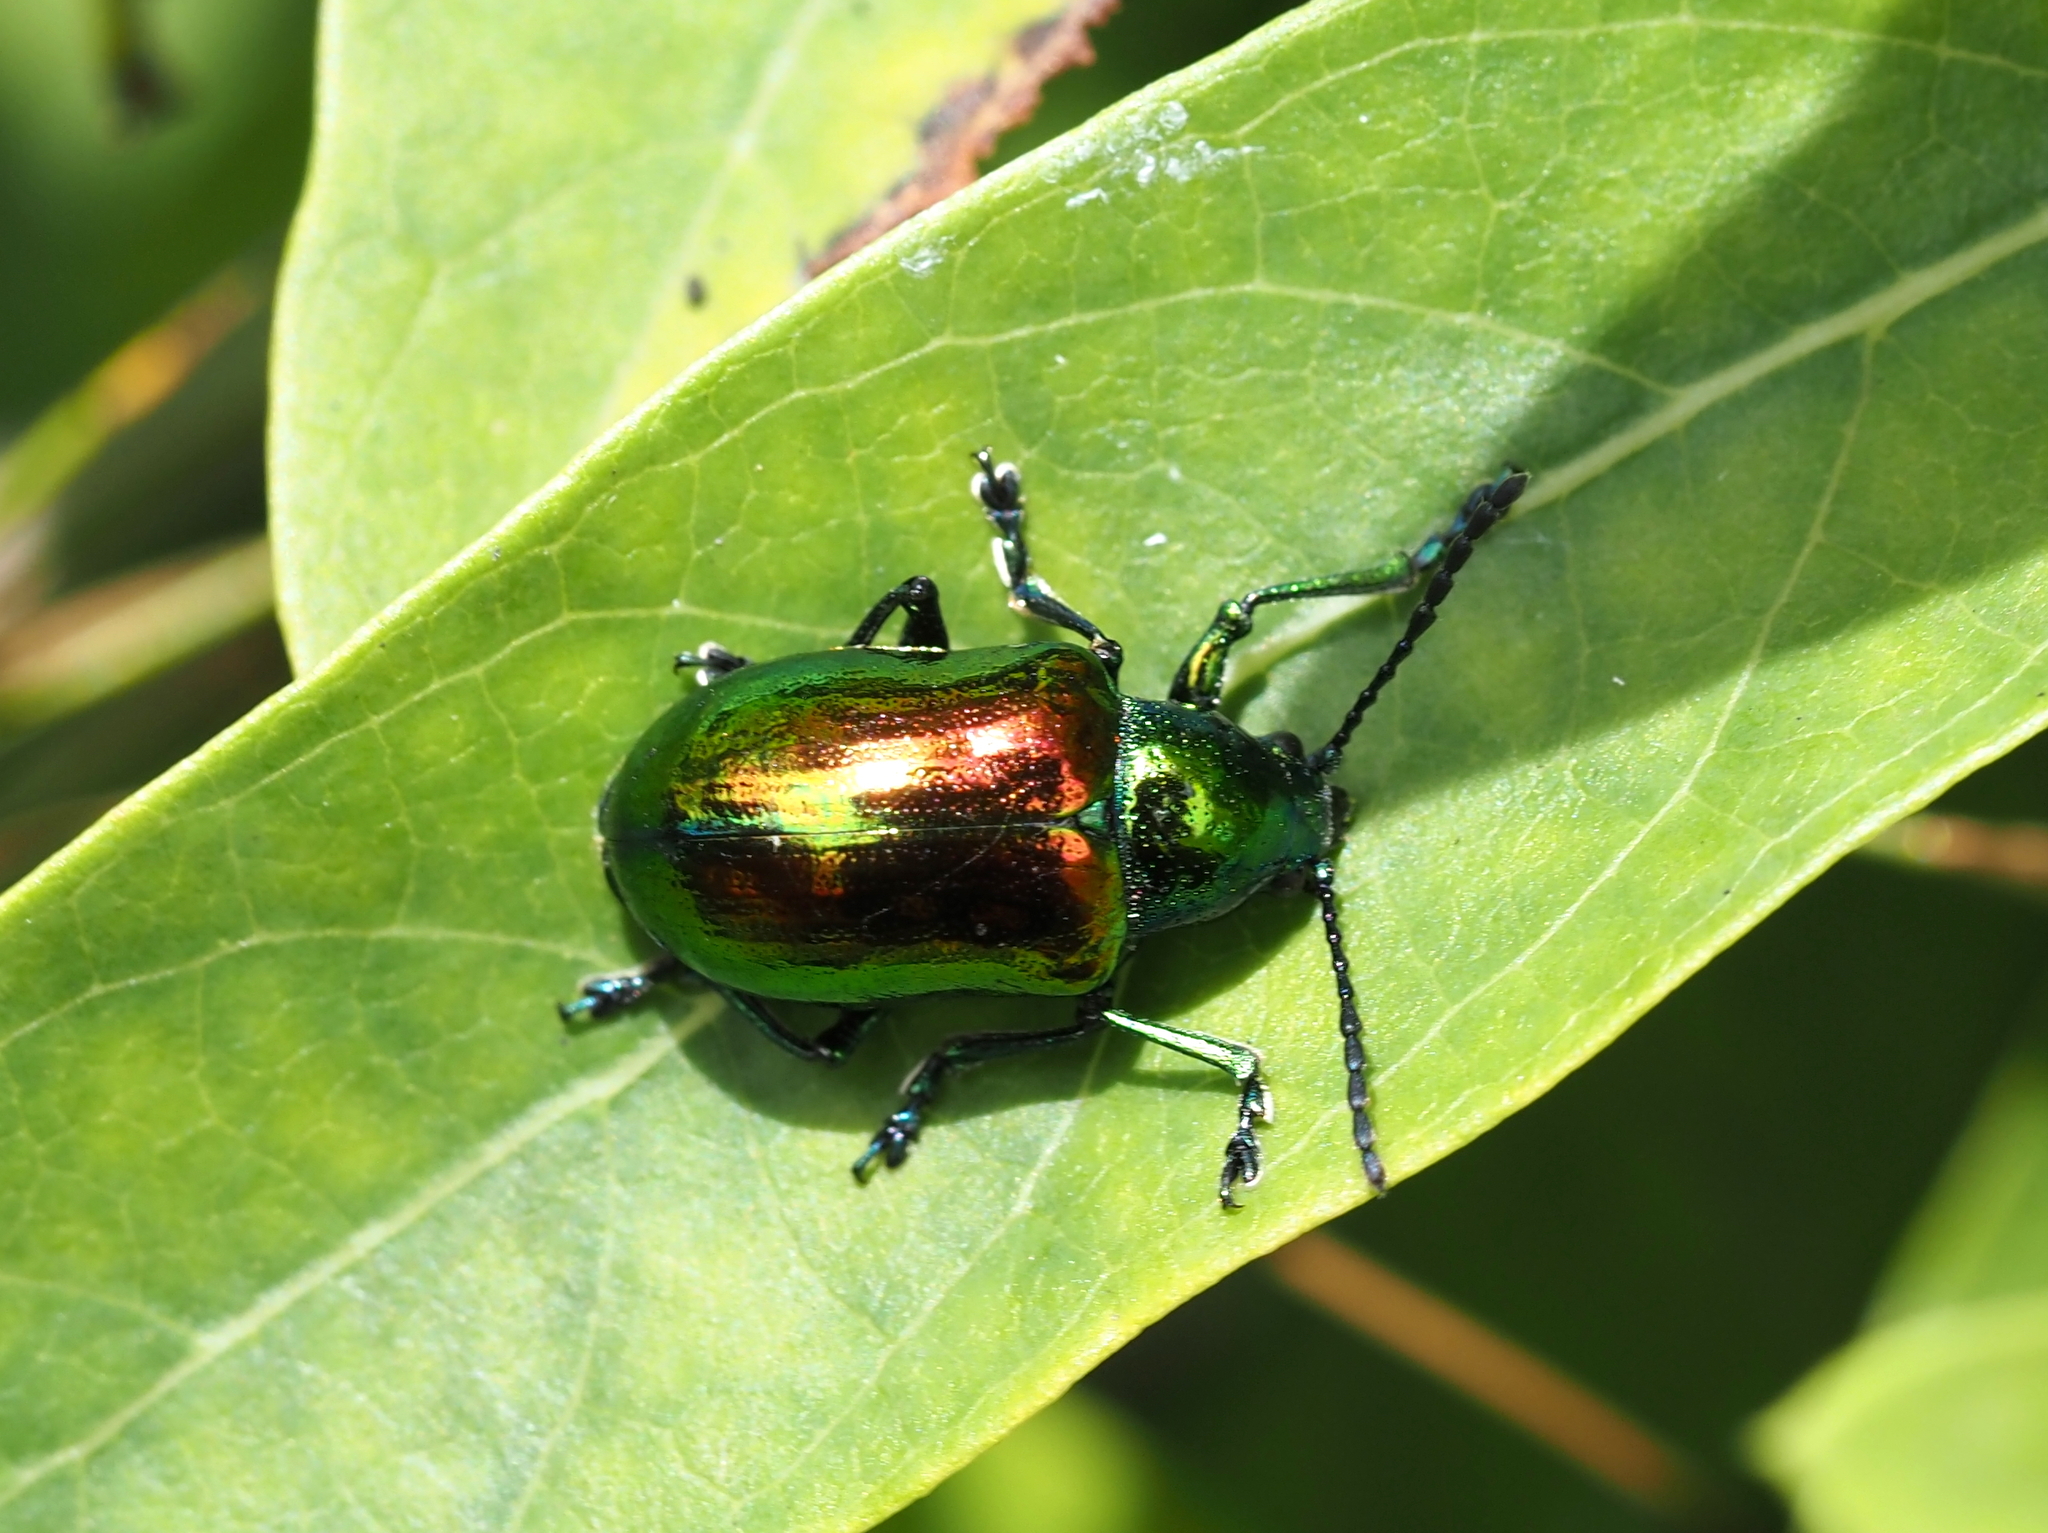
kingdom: Animalia
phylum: Arthropoda
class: Insecta
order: Coleoptera
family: Chrysomelidae
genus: Chrysochus
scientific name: Chrysochus auratus
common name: Dogbane leaf beetle
